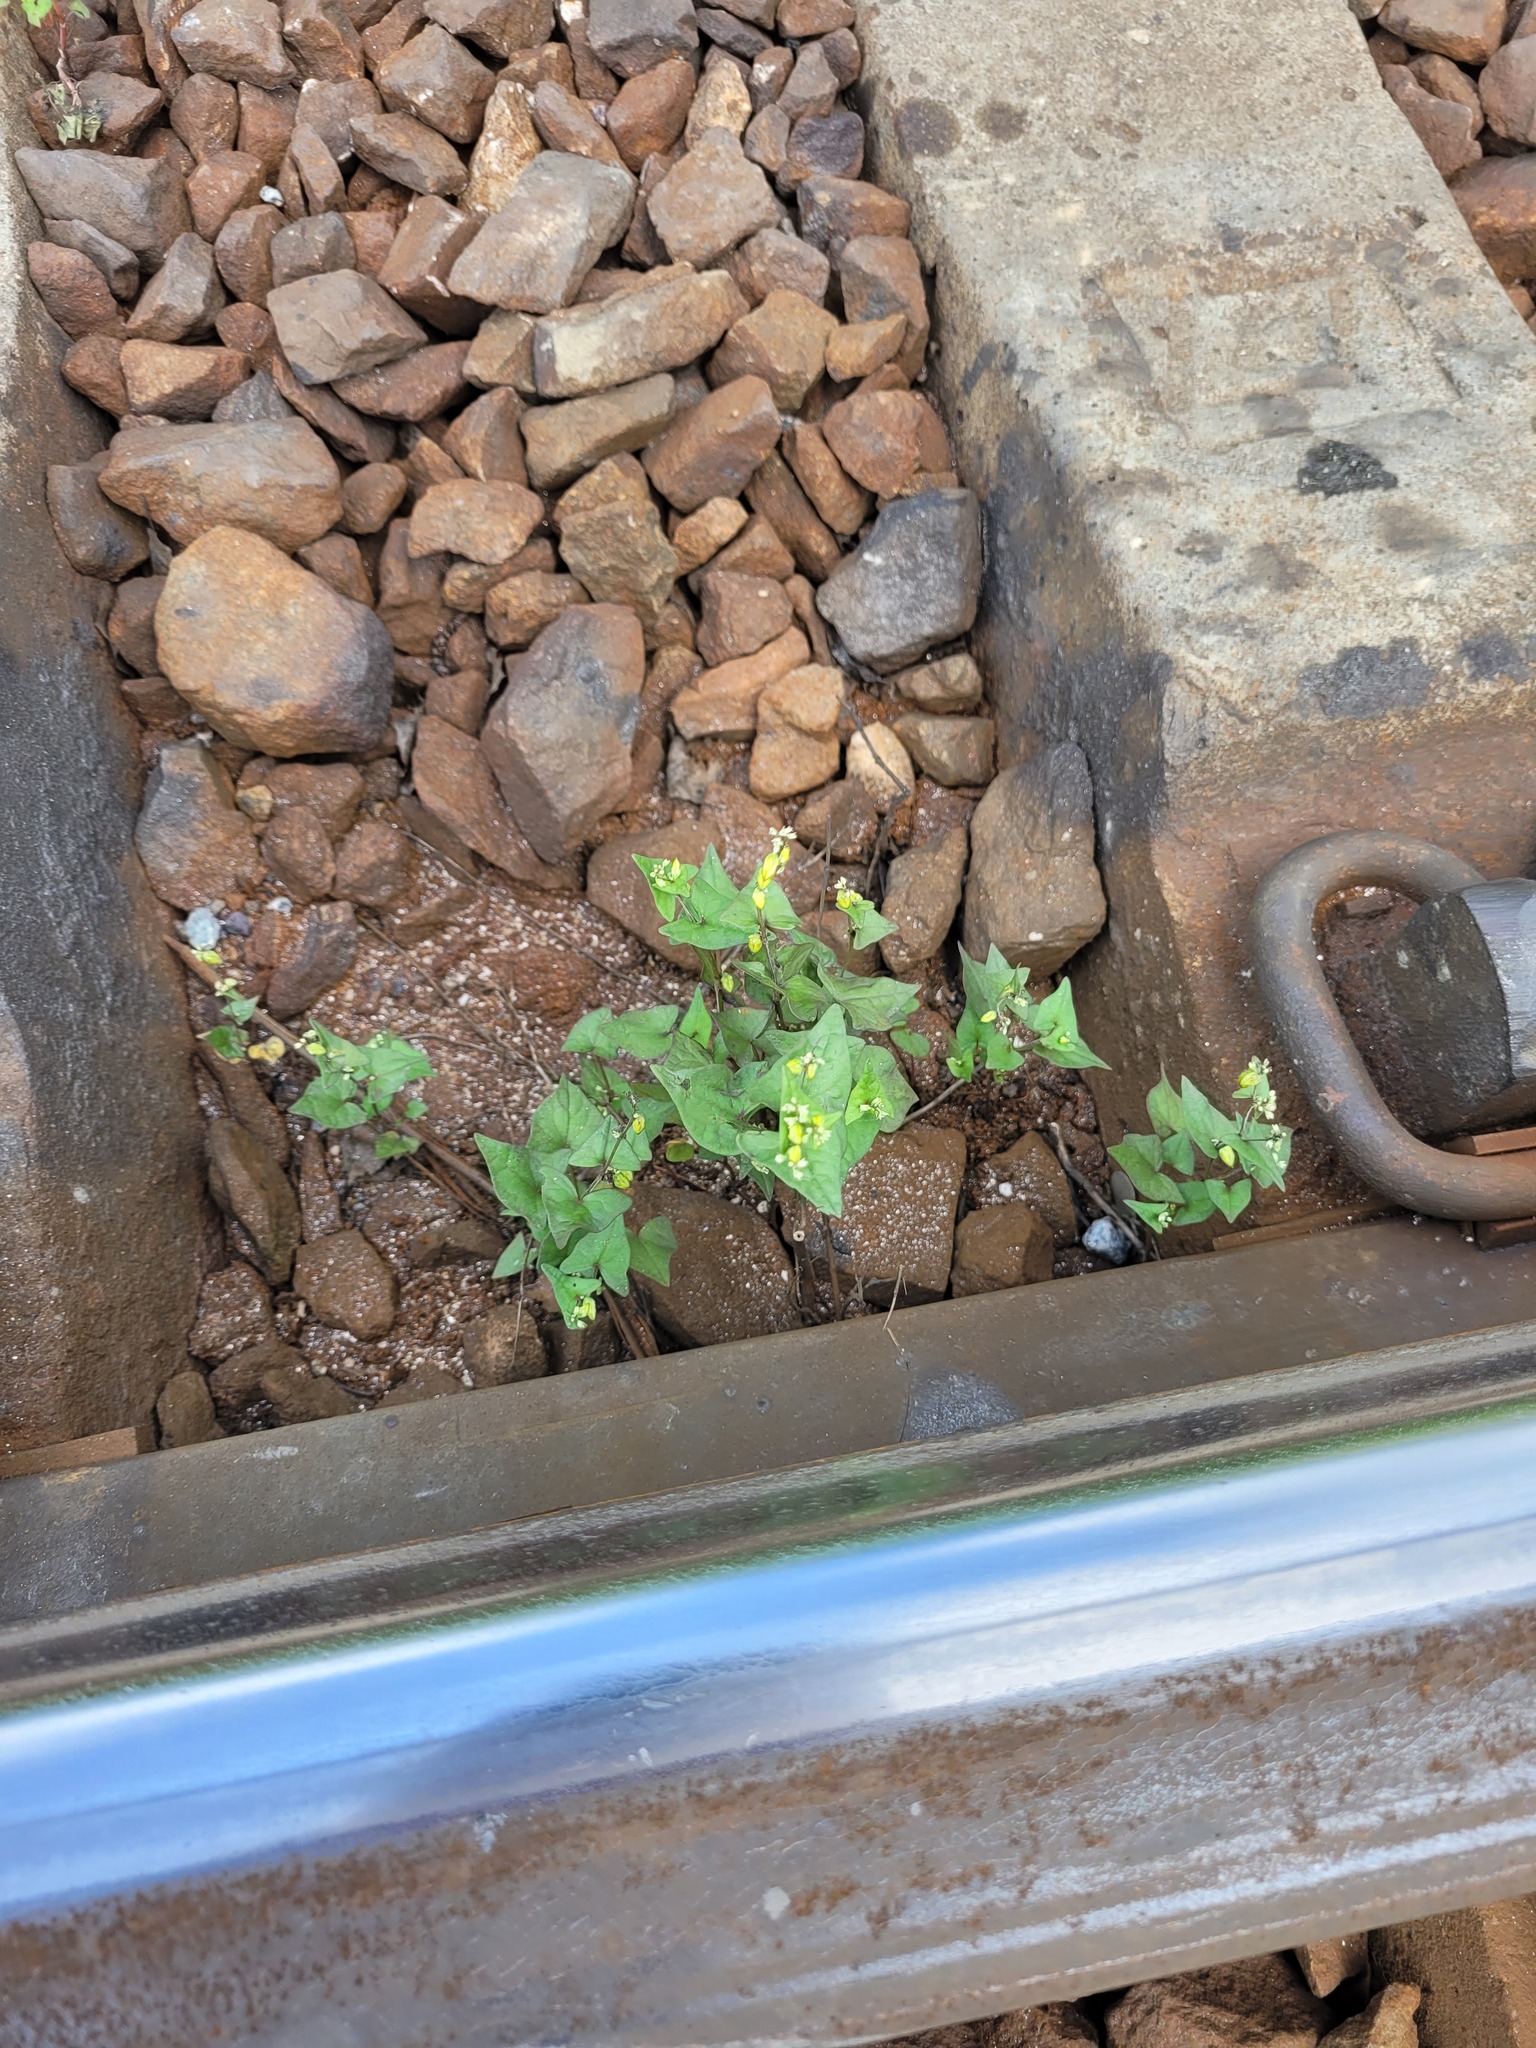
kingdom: Plantae
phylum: Tracheophyta
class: Magnoliopsida
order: Caryophyllales
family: Polygonaceae
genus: Fagopyrum
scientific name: Fagopyrum tataricum
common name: Green buckwheat
